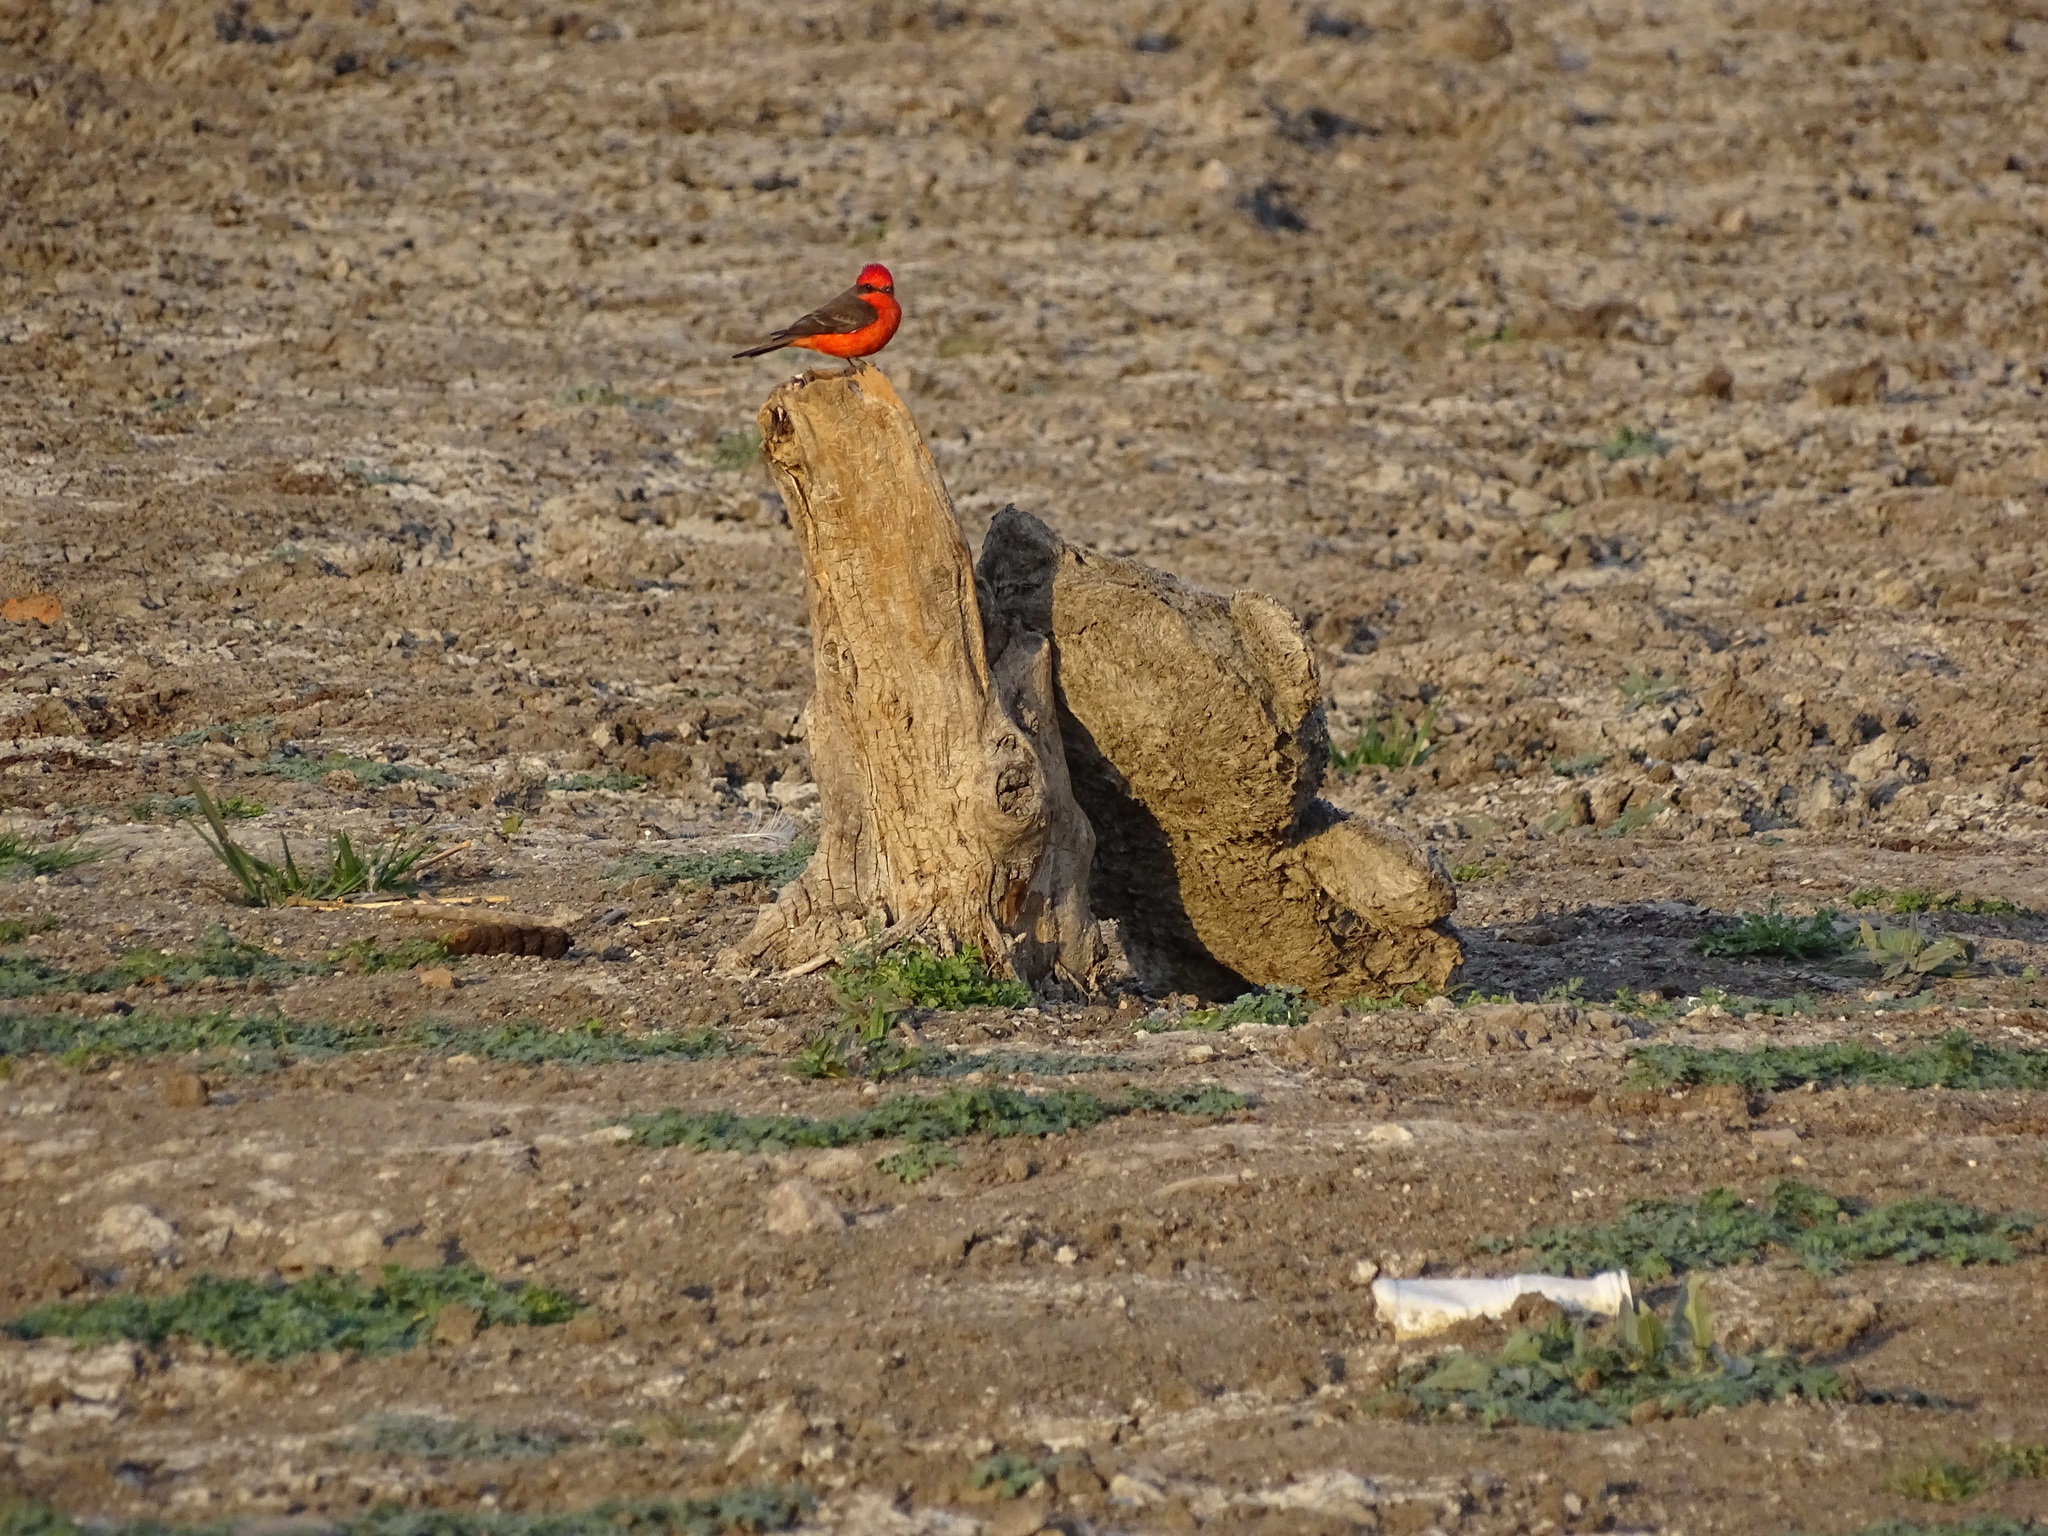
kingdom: Animalia
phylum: Chordata
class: Aves
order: Passeriformes
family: Tyrannidae
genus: Pyrocephalus
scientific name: Pyrocephalus rubinus
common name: Vermilion flycatcher
